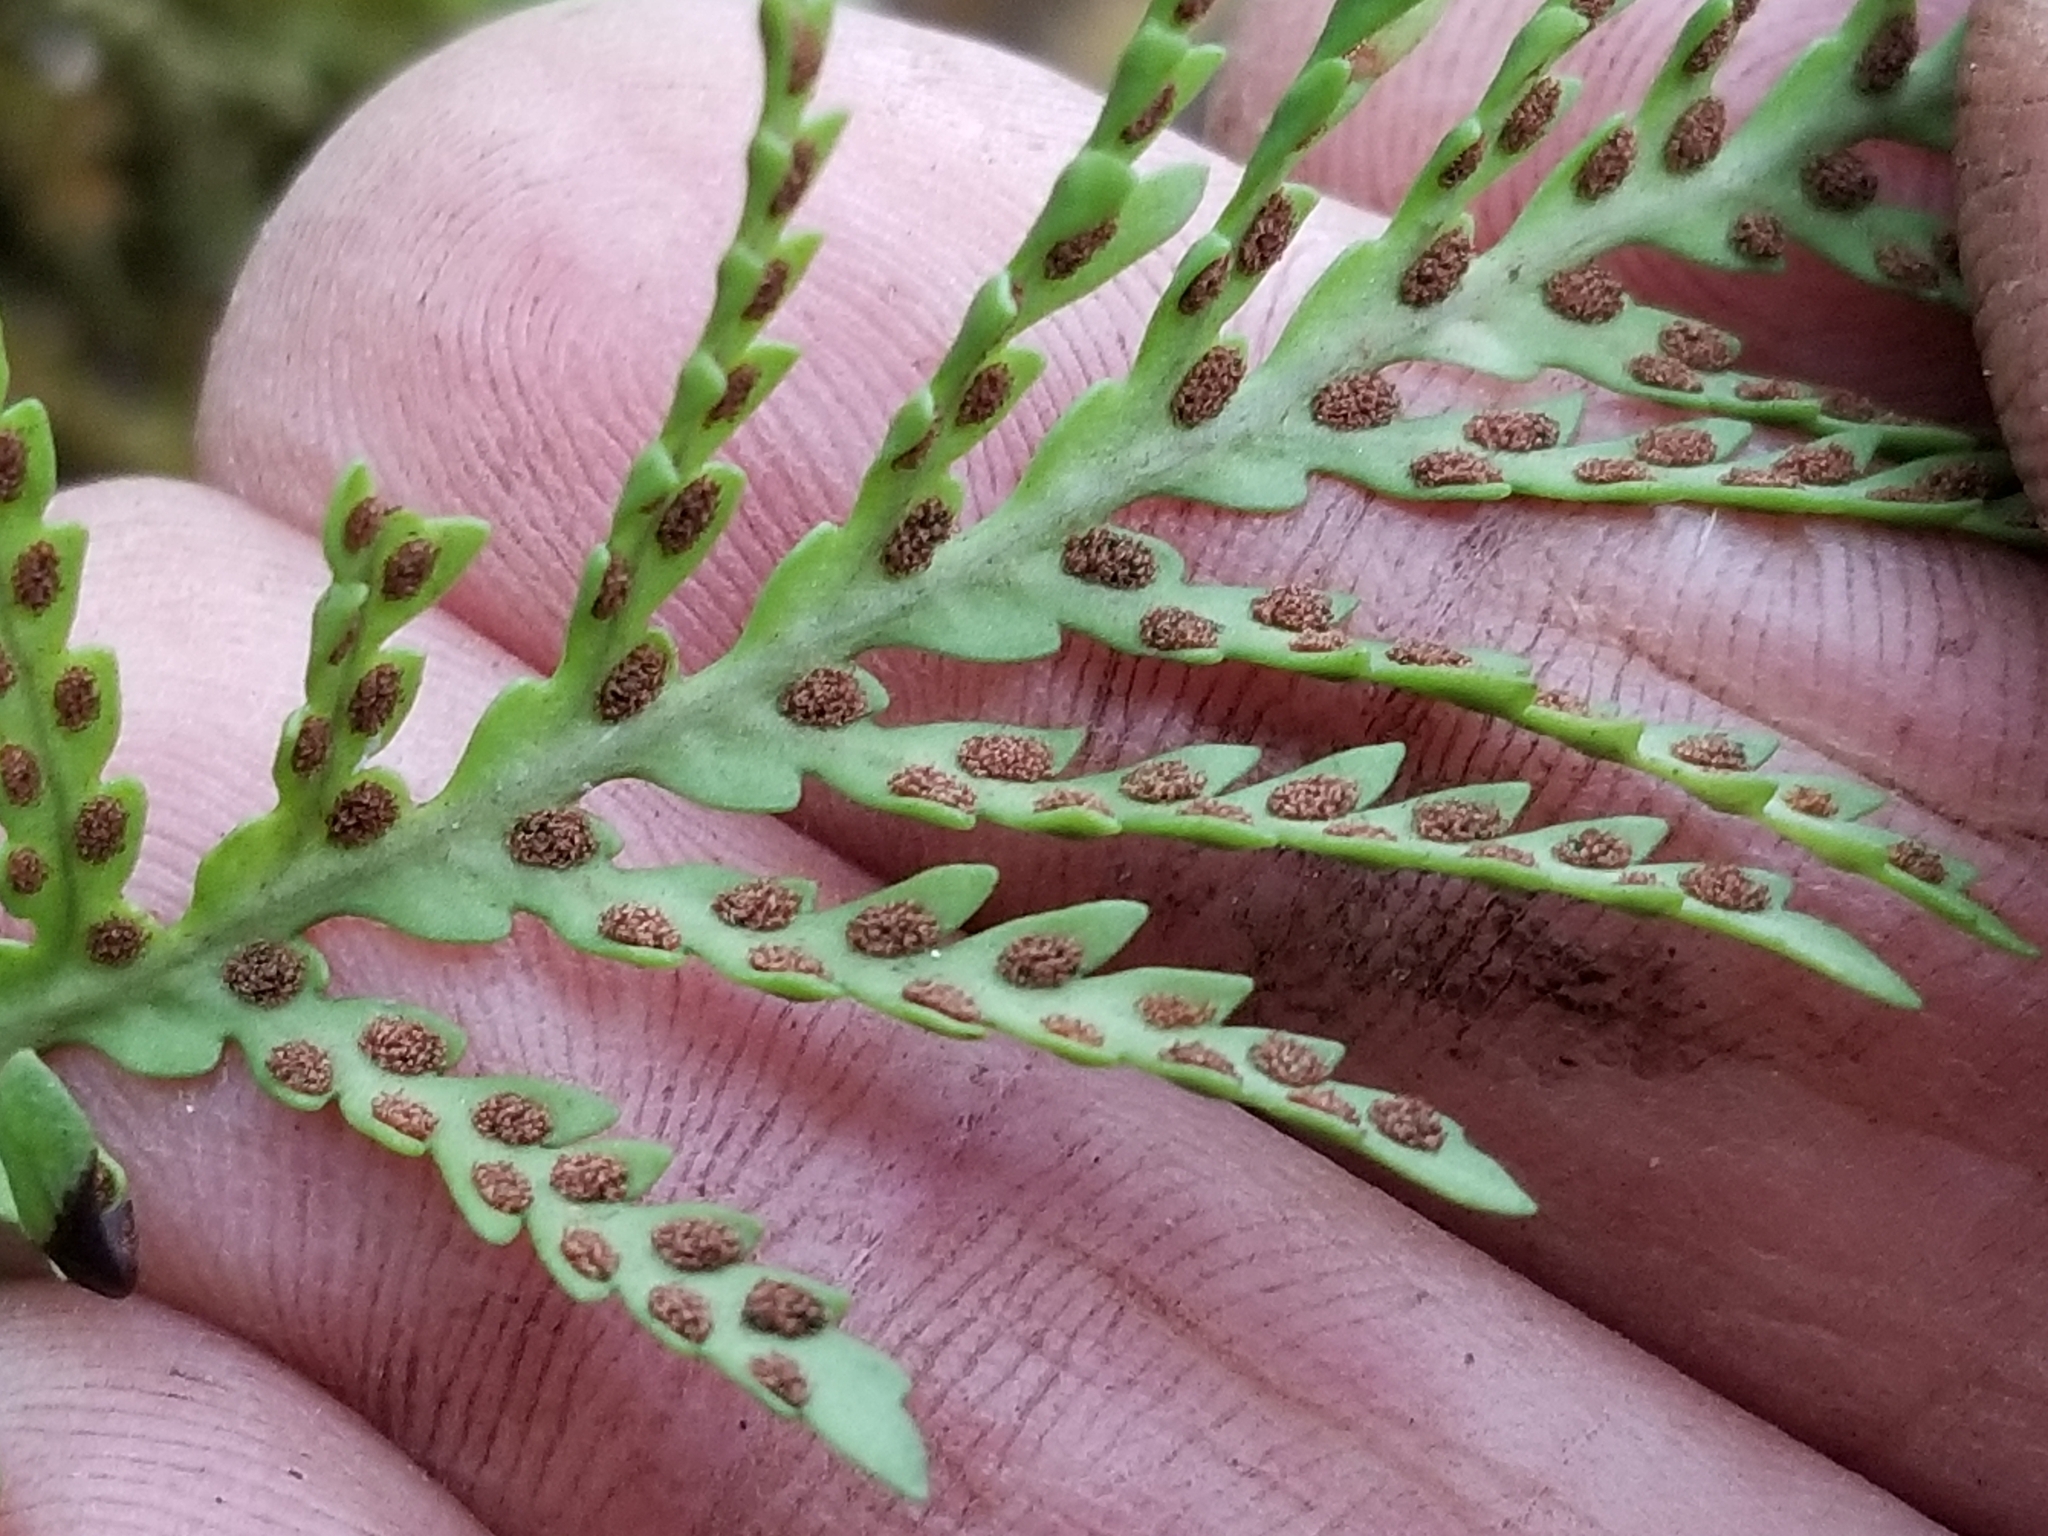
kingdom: Plantae
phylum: Tracheophyta
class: Polypodiopsida
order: Polypodiales
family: Polypodiaceae
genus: Notogrammitis
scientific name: Notogrammitis heterophylla
